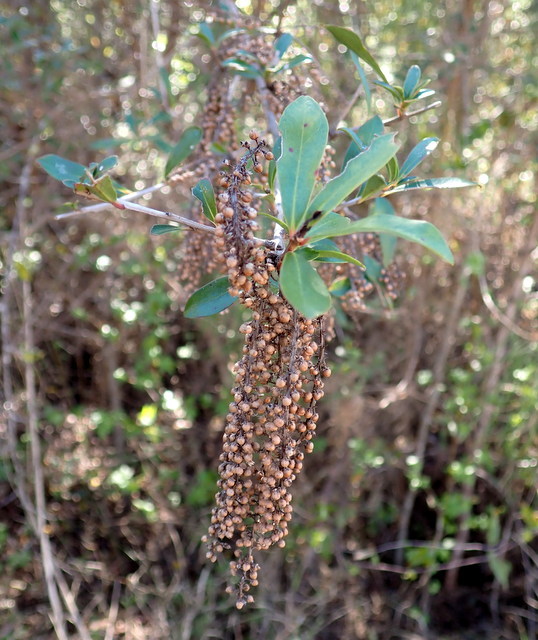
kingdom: Plantae
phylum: Tracheophyta
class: Magnoliopsida
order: Ericales
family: Cyrillaceae
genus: Cyrilla
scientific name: Cyrilla racemiflora
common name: Black titi
